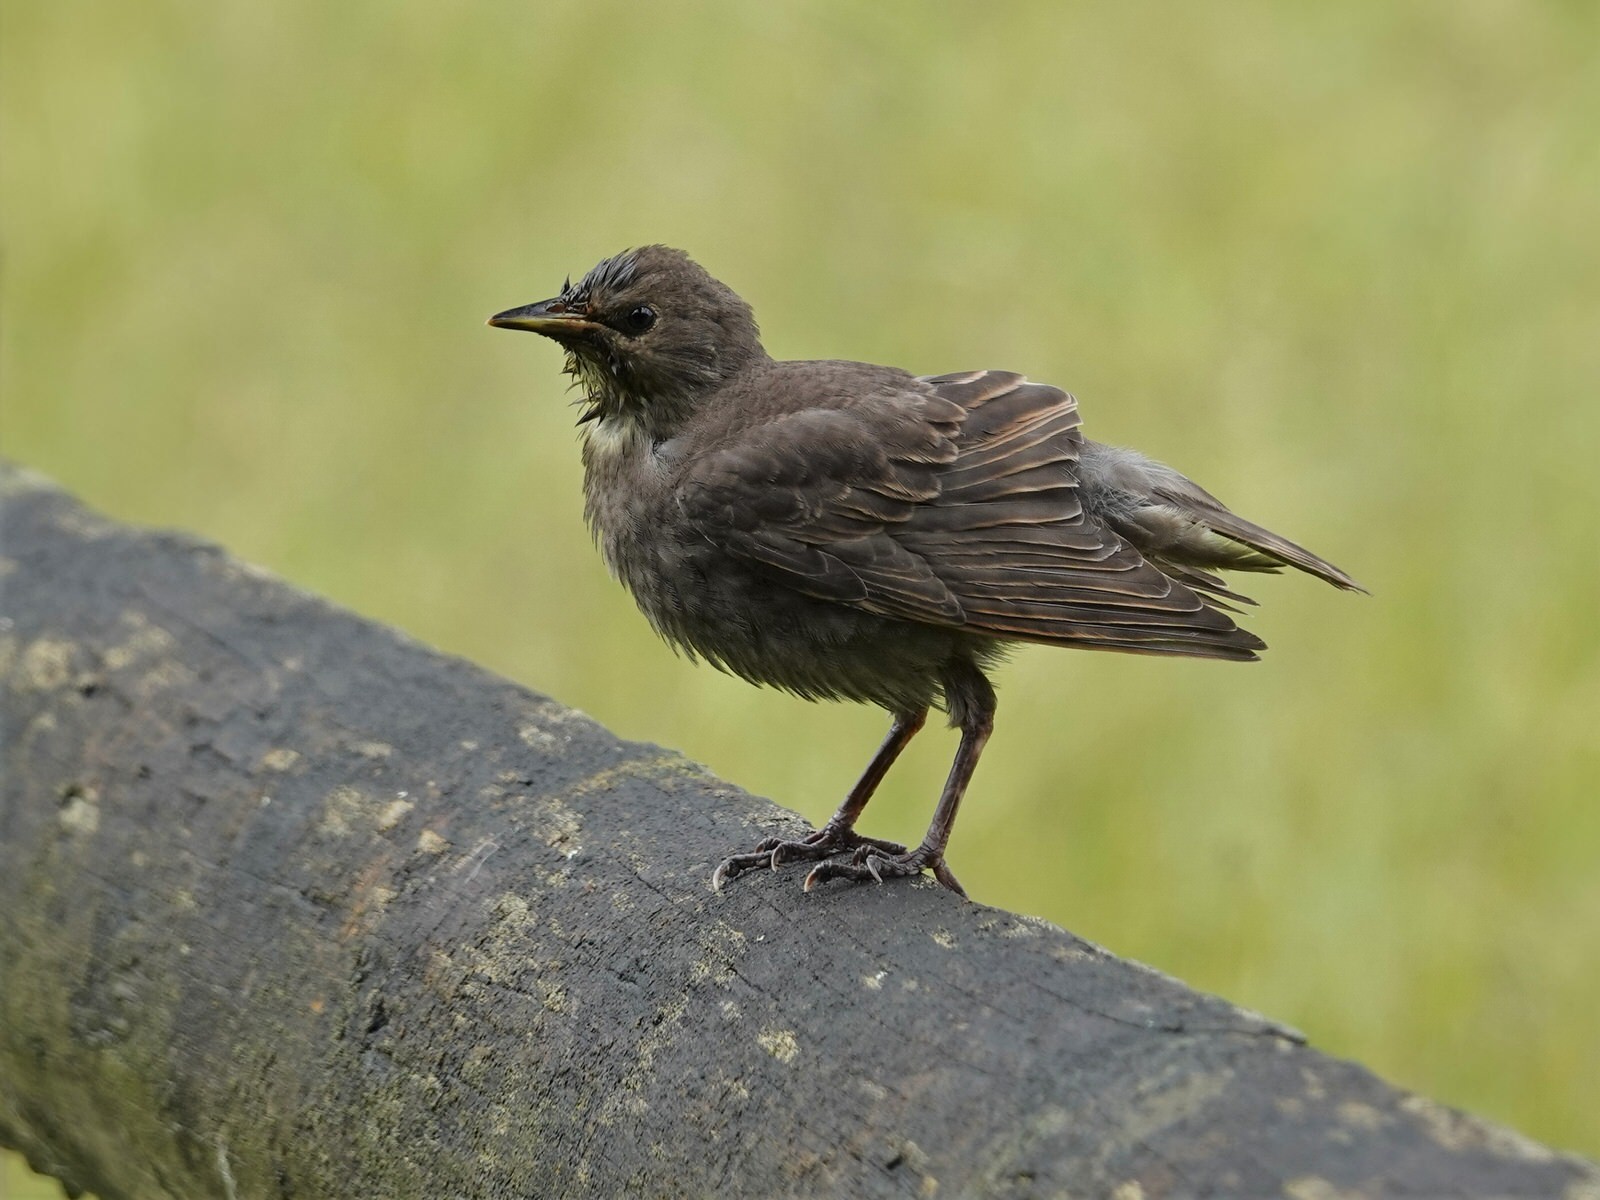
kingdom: Animalia
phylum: Chordata
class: Aves
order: Passeriformes
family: Sturnidae
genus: Sturnus
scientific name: Sturnus vulgaris
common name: Common starling
